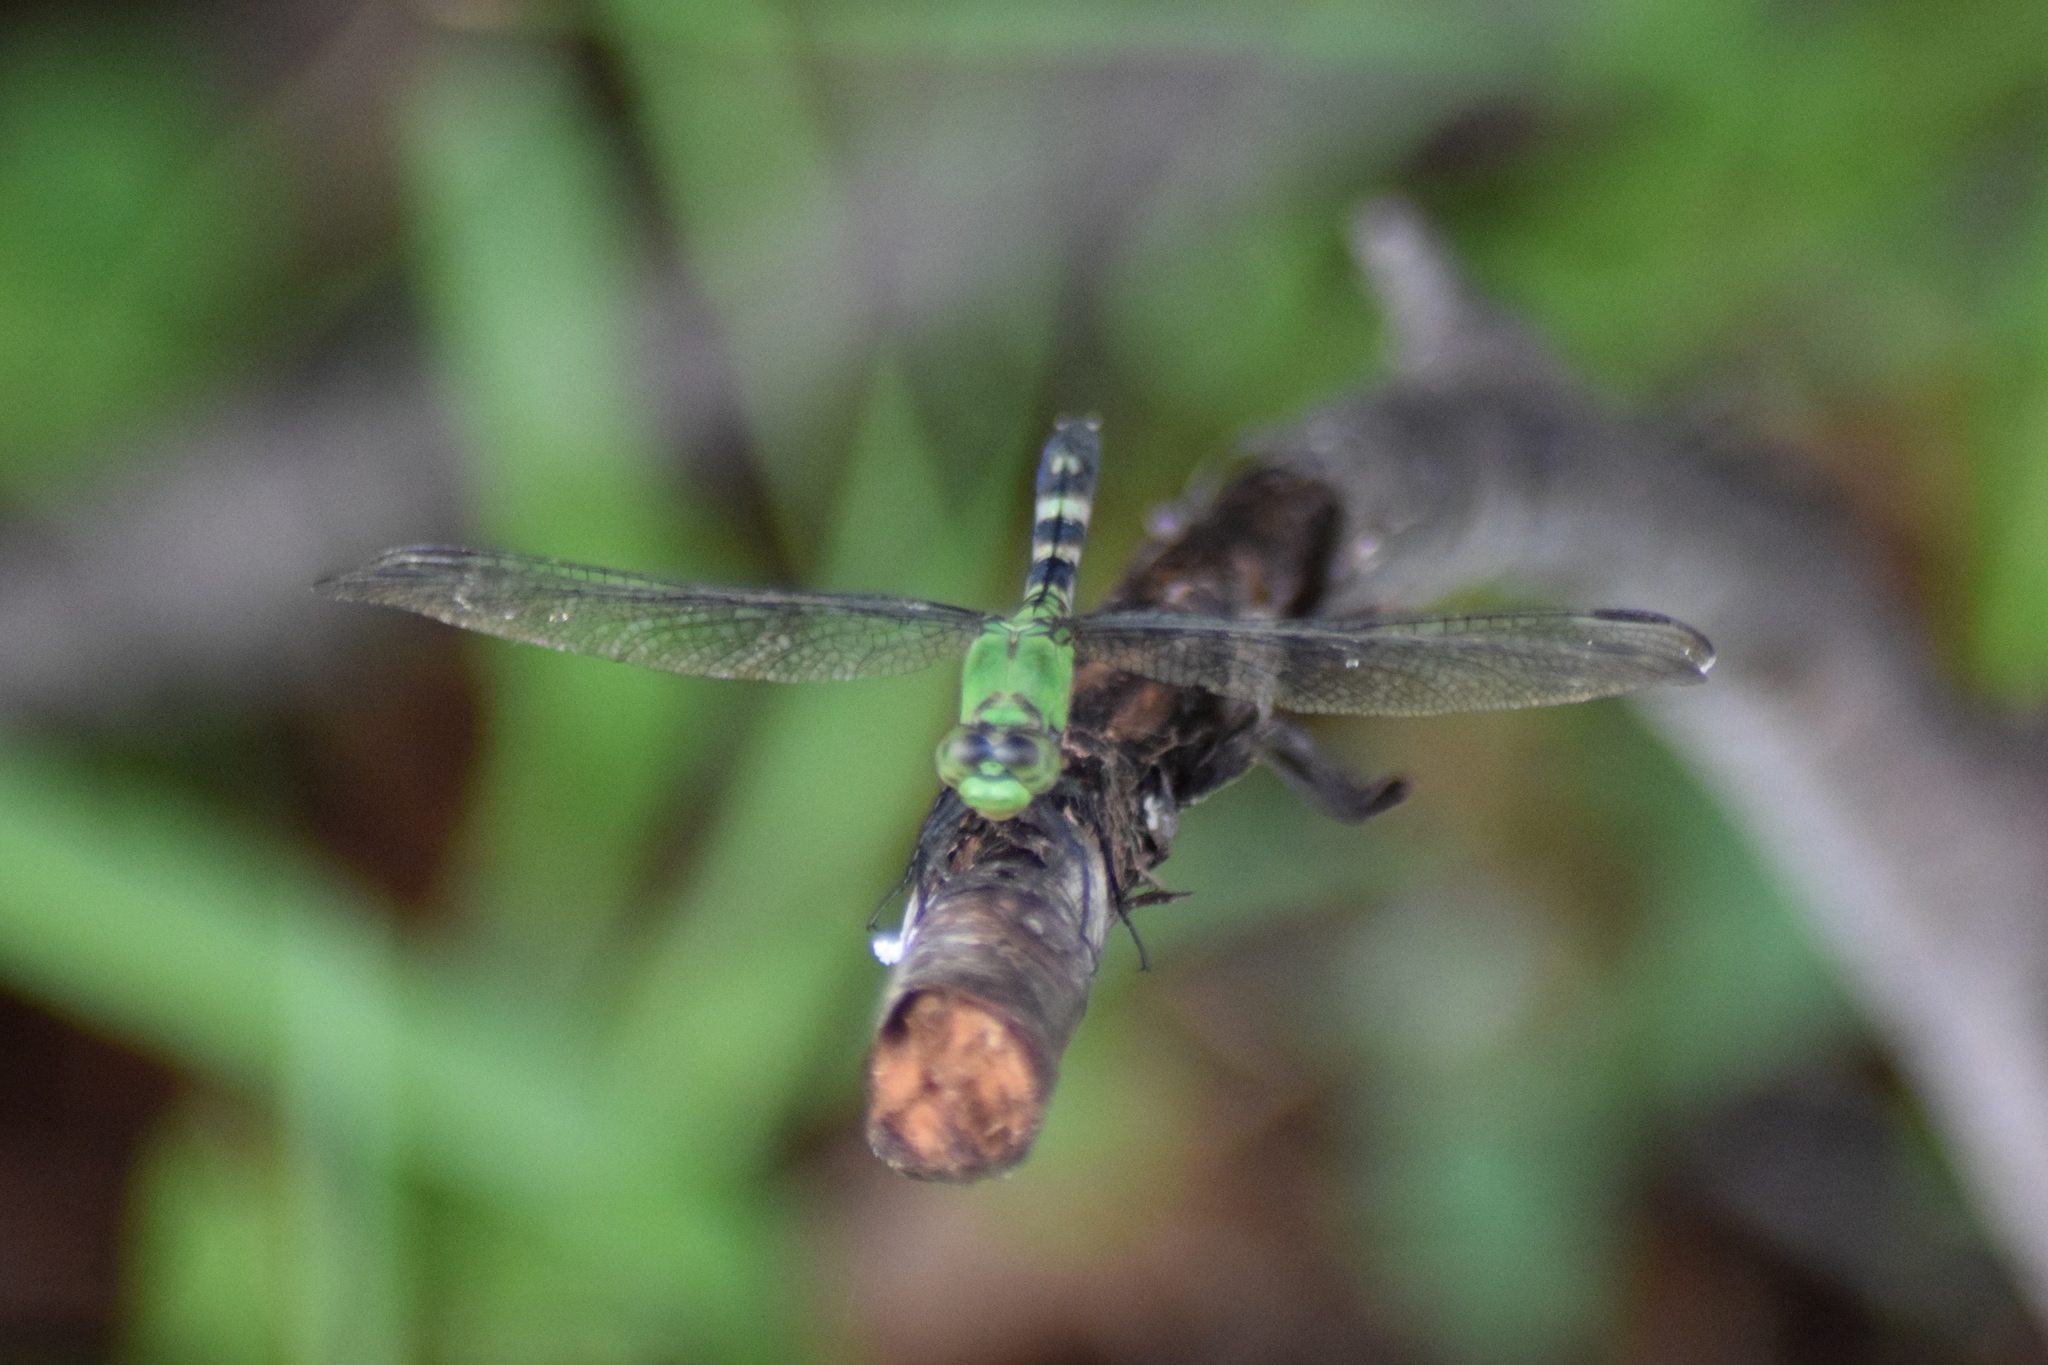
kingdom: Animalia
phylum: Arthropoda
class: Insecta
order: Odonata
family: Libellulidae
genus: Erythemis
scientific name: Erythemis simplicicollis
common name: Eastern pondhawk
